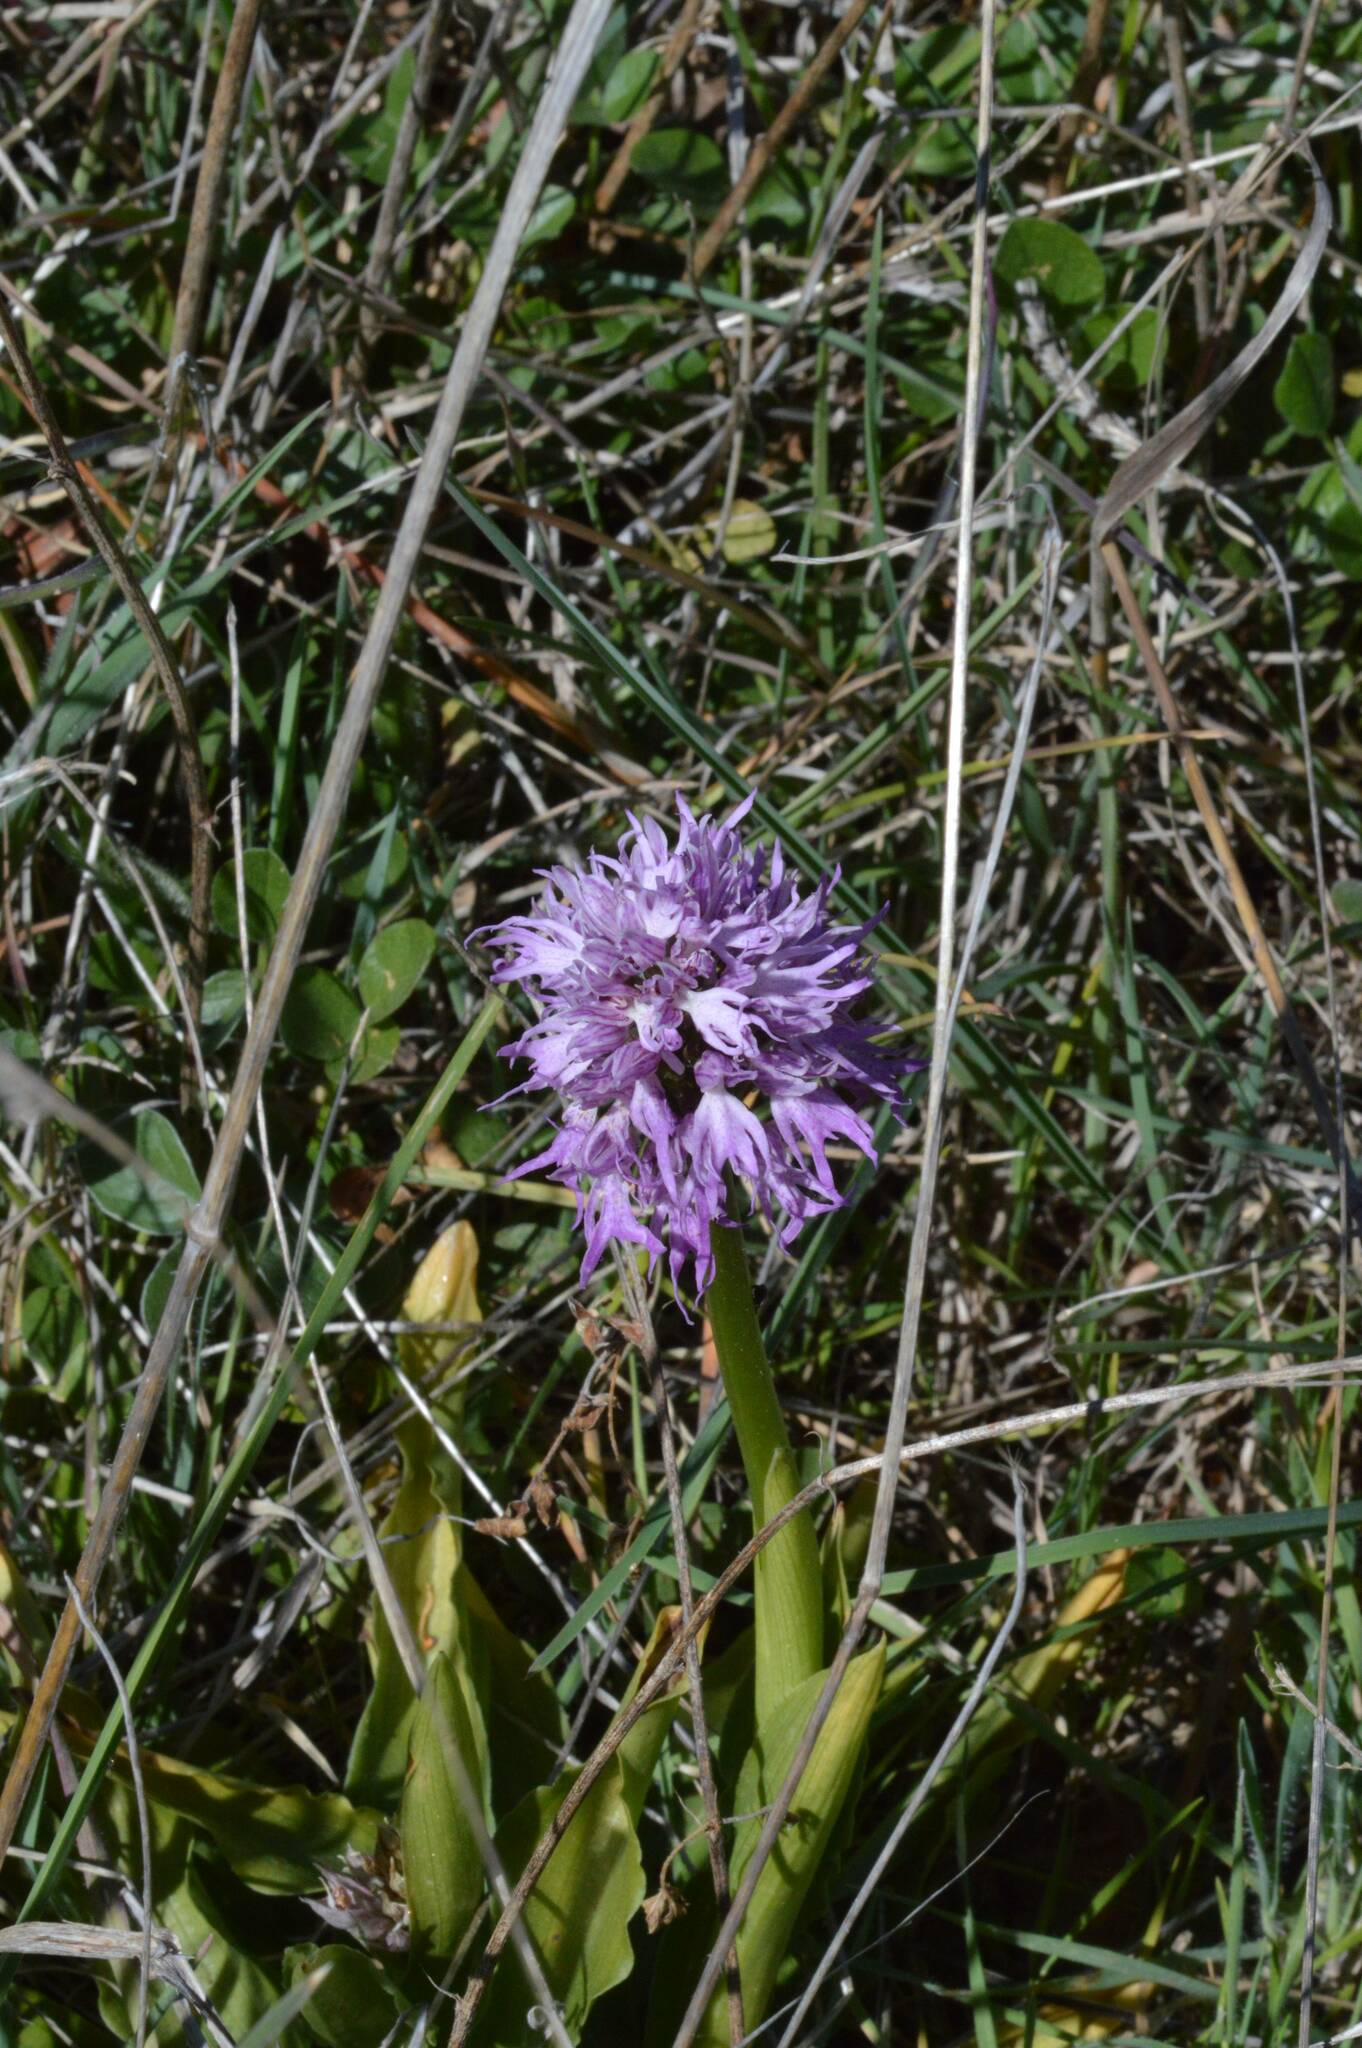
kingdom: Plantae
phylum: Tracheophyta
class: Liliopsida
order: Asparagales
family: Orchidaceae
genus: Orchis
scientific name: Orchis italica
